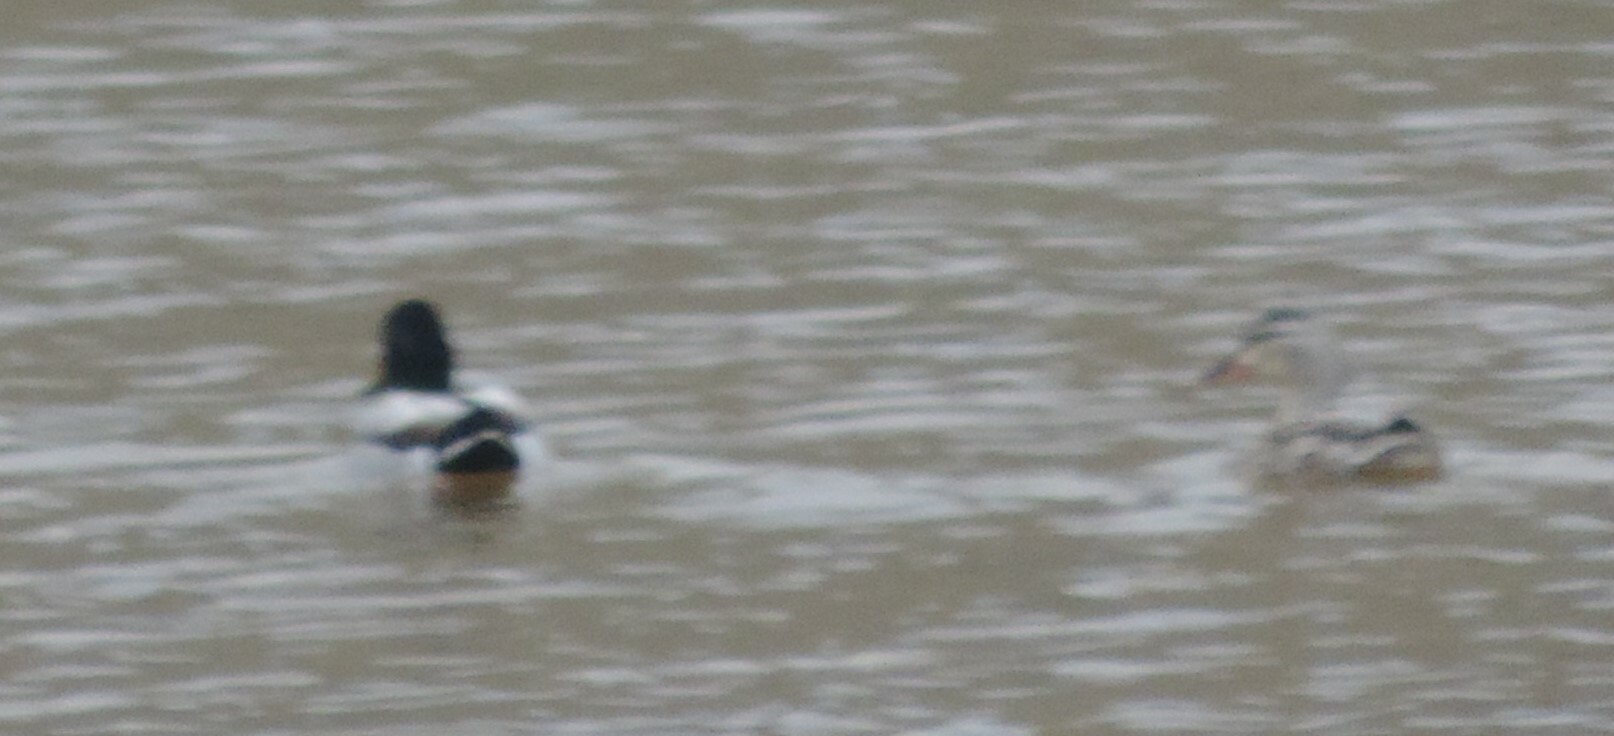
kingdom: Animalia
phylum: Chordata
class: Aves
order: Anseriformes
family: Anatidae
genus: Anas
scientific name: Anas platyrhynchos
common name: Mallard
